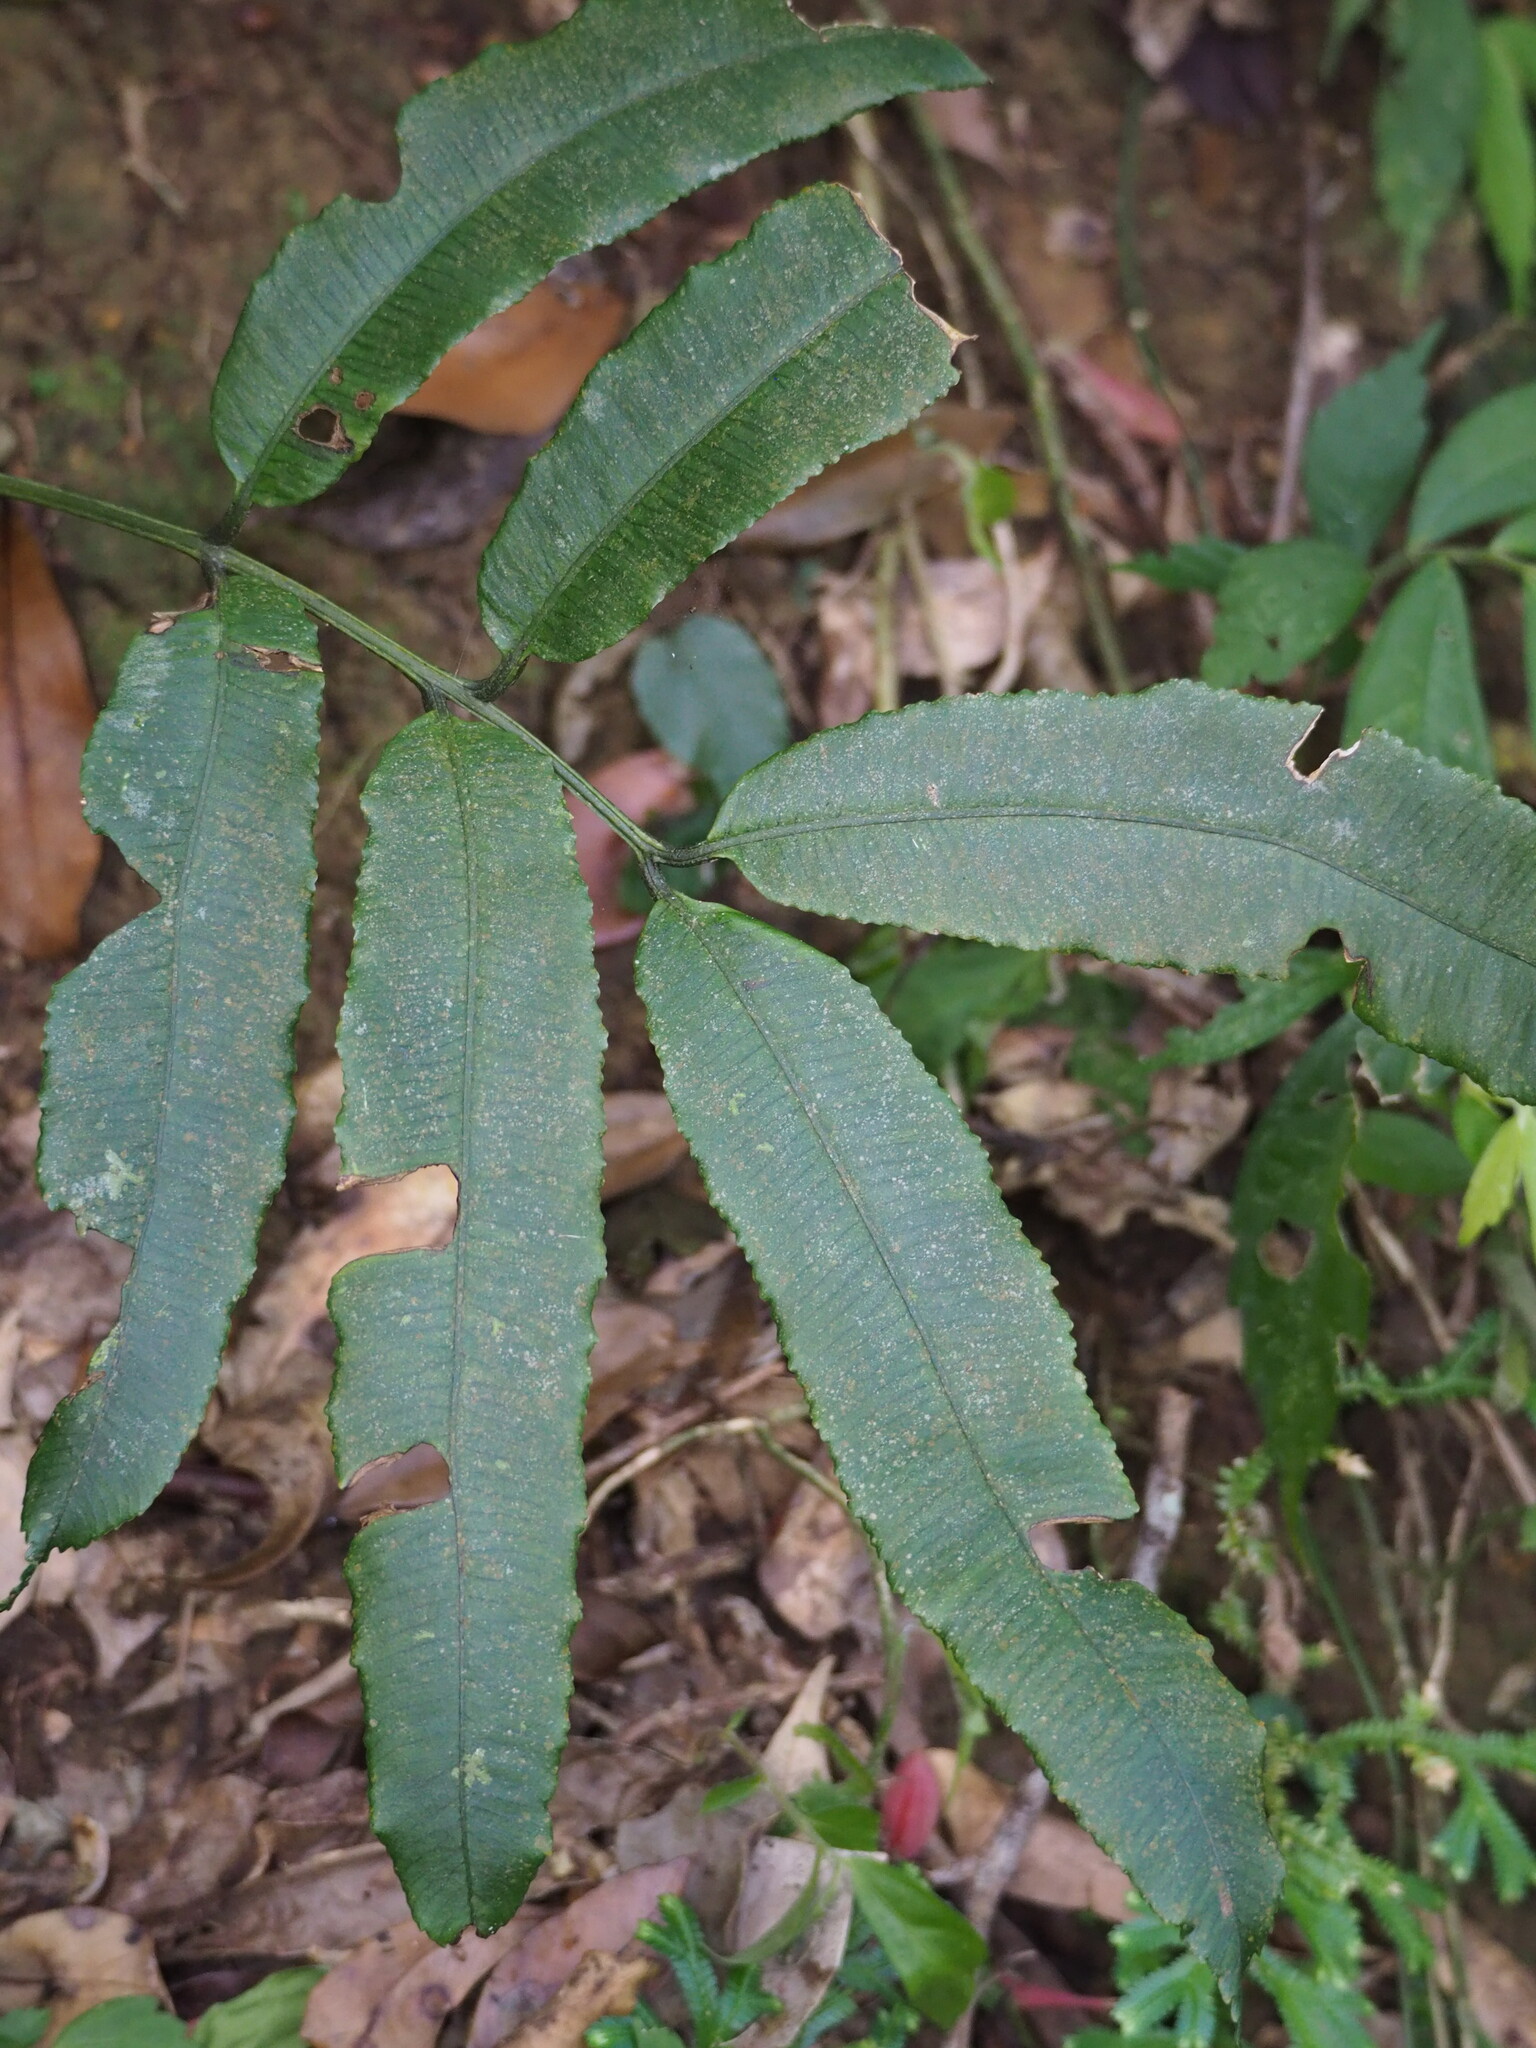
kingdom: Plantae
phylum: Tracheophyta
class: Polypodiopsida
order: Marattiales
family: Marattiaceae
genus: Angiopteris
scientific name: Angiopteris somae
